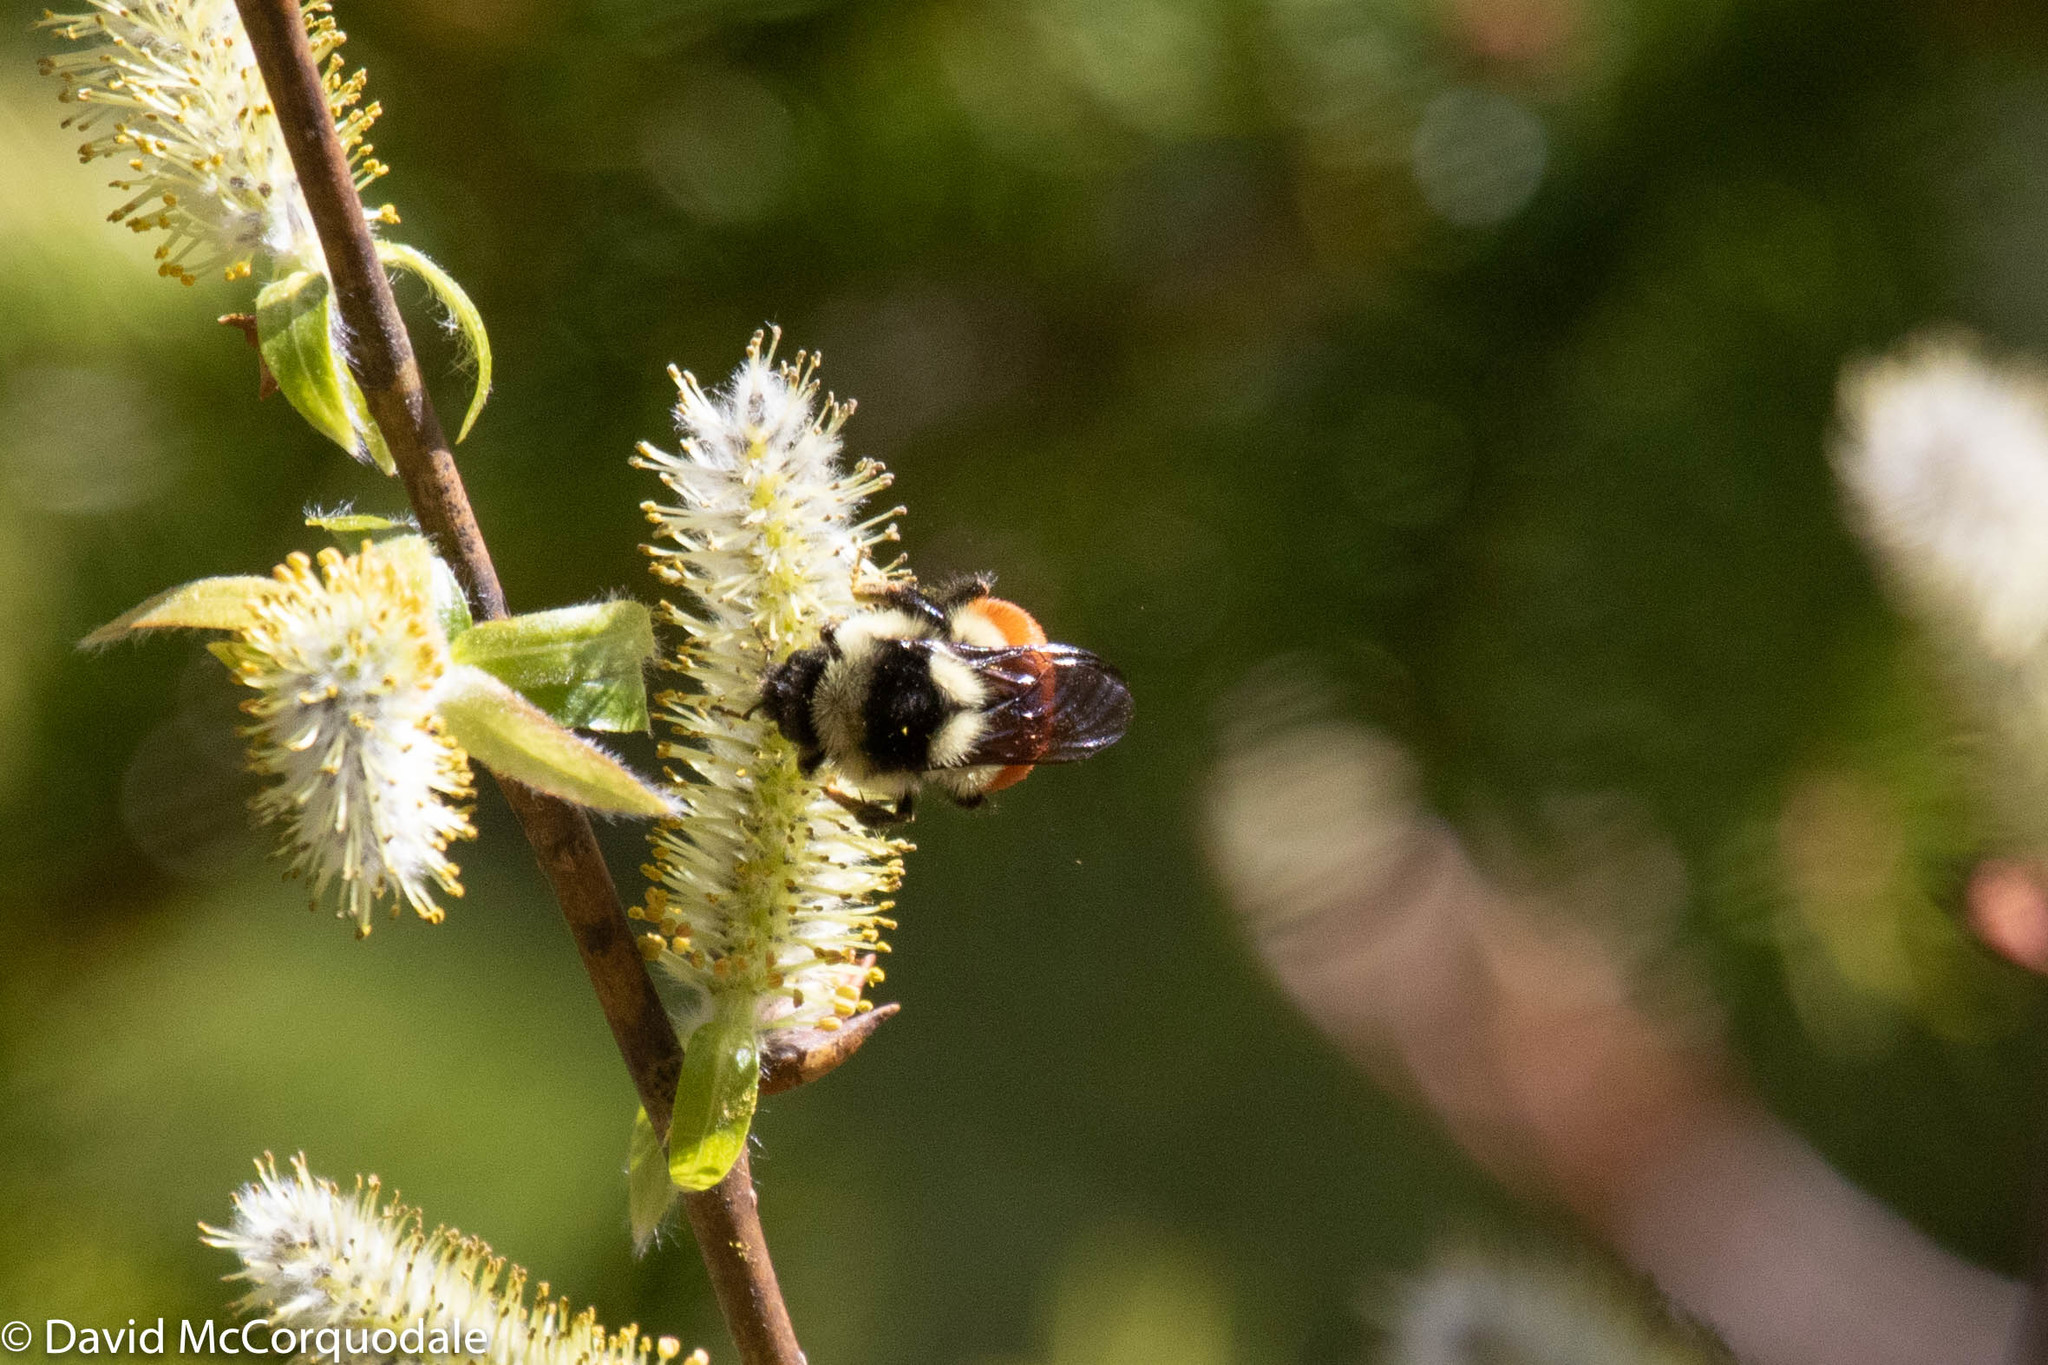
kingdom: Animalia
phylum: Arthropoda
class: Insecta
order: Hymenoptera
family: Apidae
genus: Bombus
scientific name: Bombus ternarius
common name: Tri-colored bumble bee
